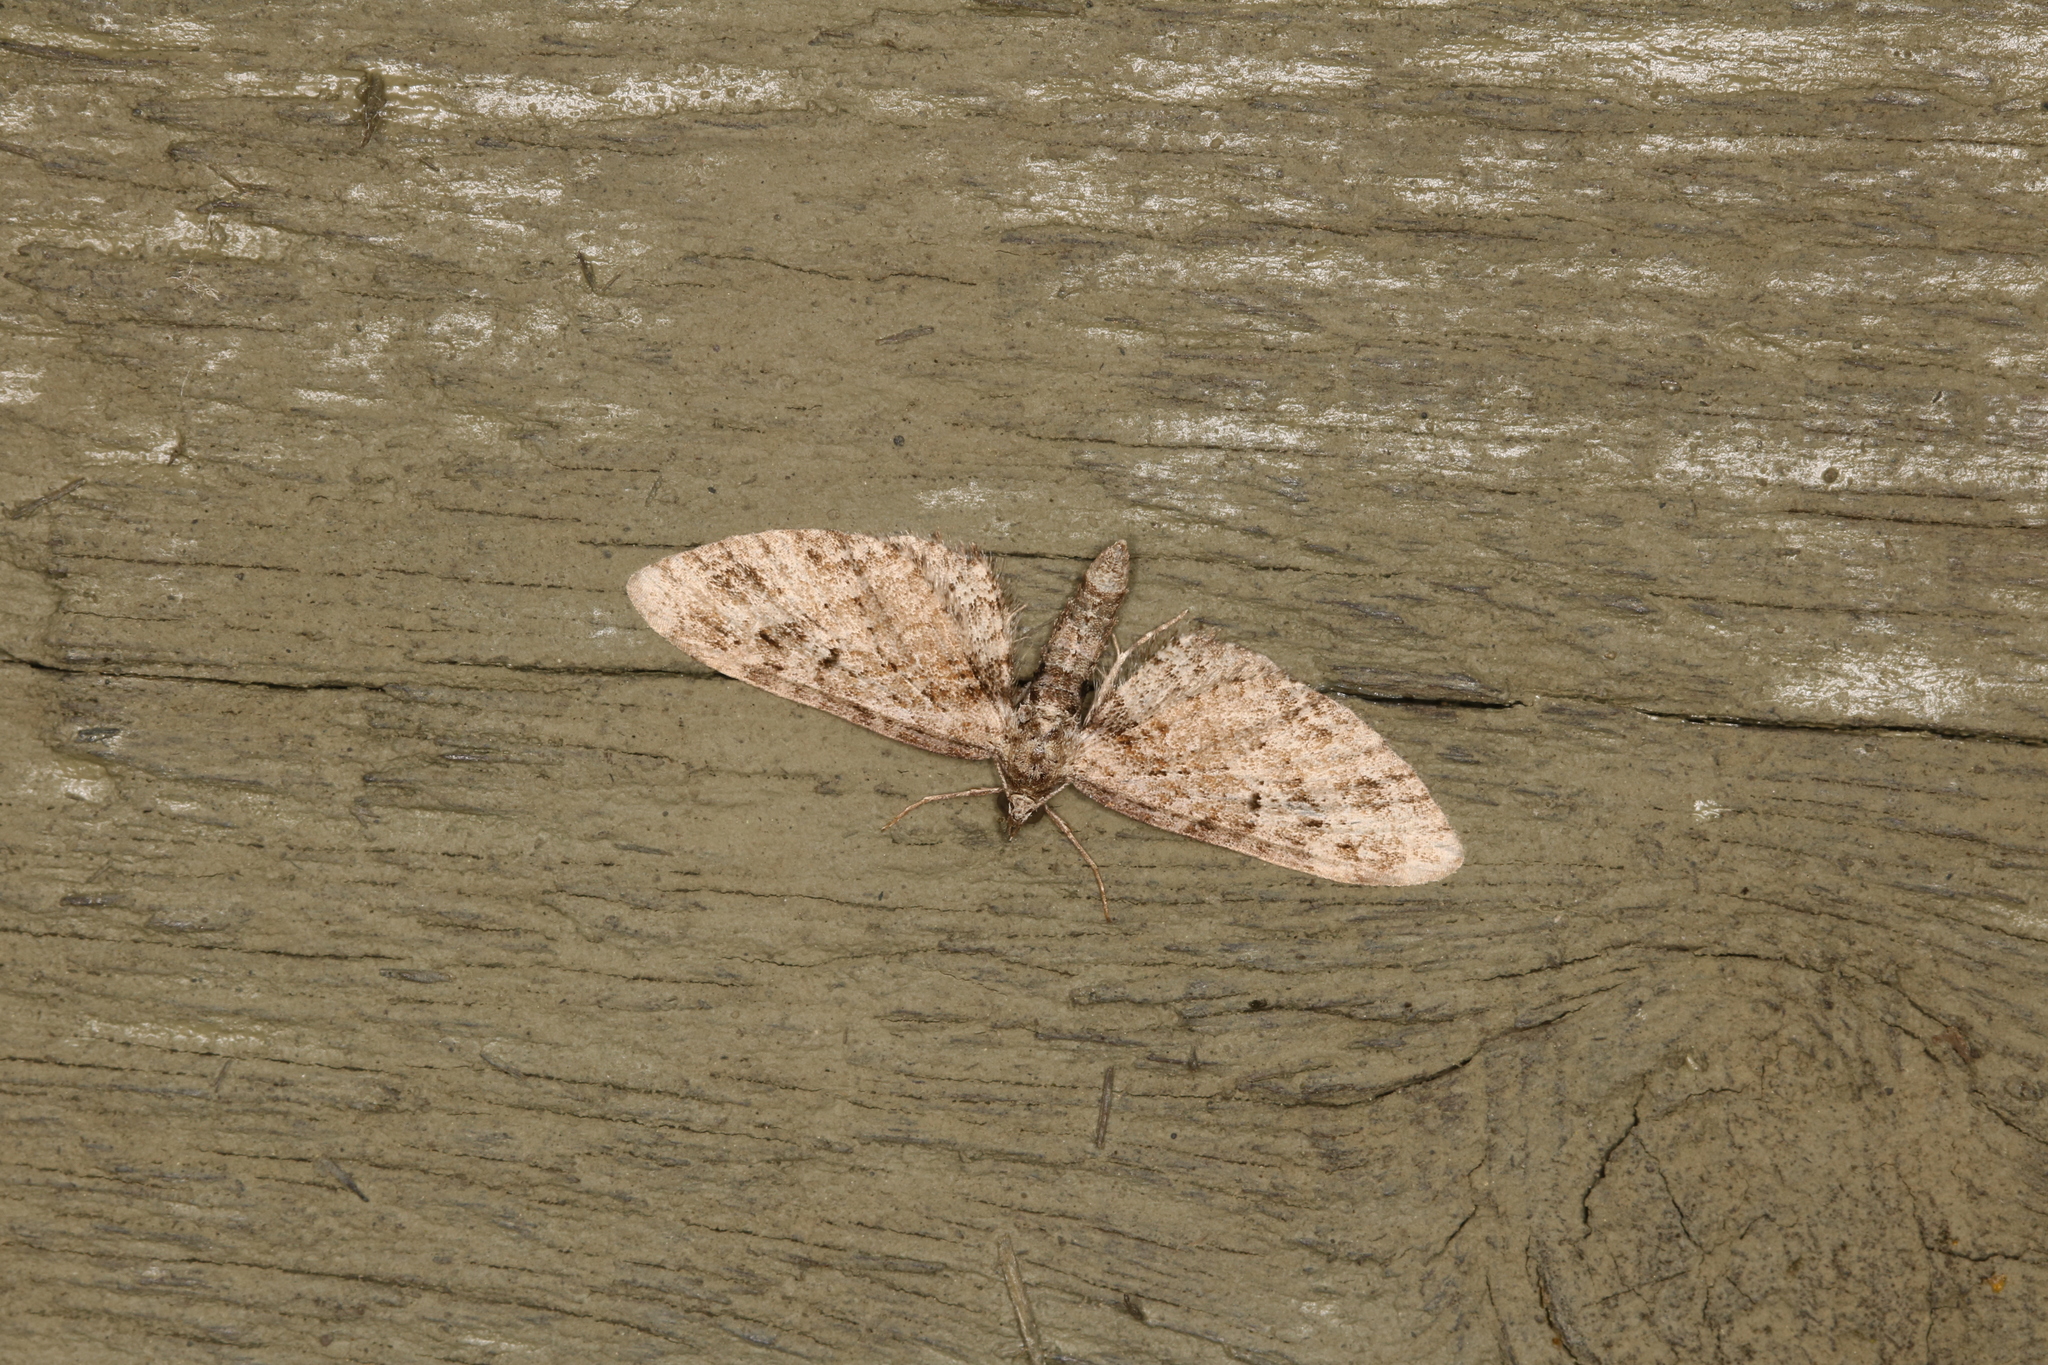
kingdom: Animalia
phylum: Arthropoda
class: Insecta
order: Lepidoptera
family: Geometridae
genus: Eupithecia
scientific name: Eupithecia exiguata
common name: Mottled pug
